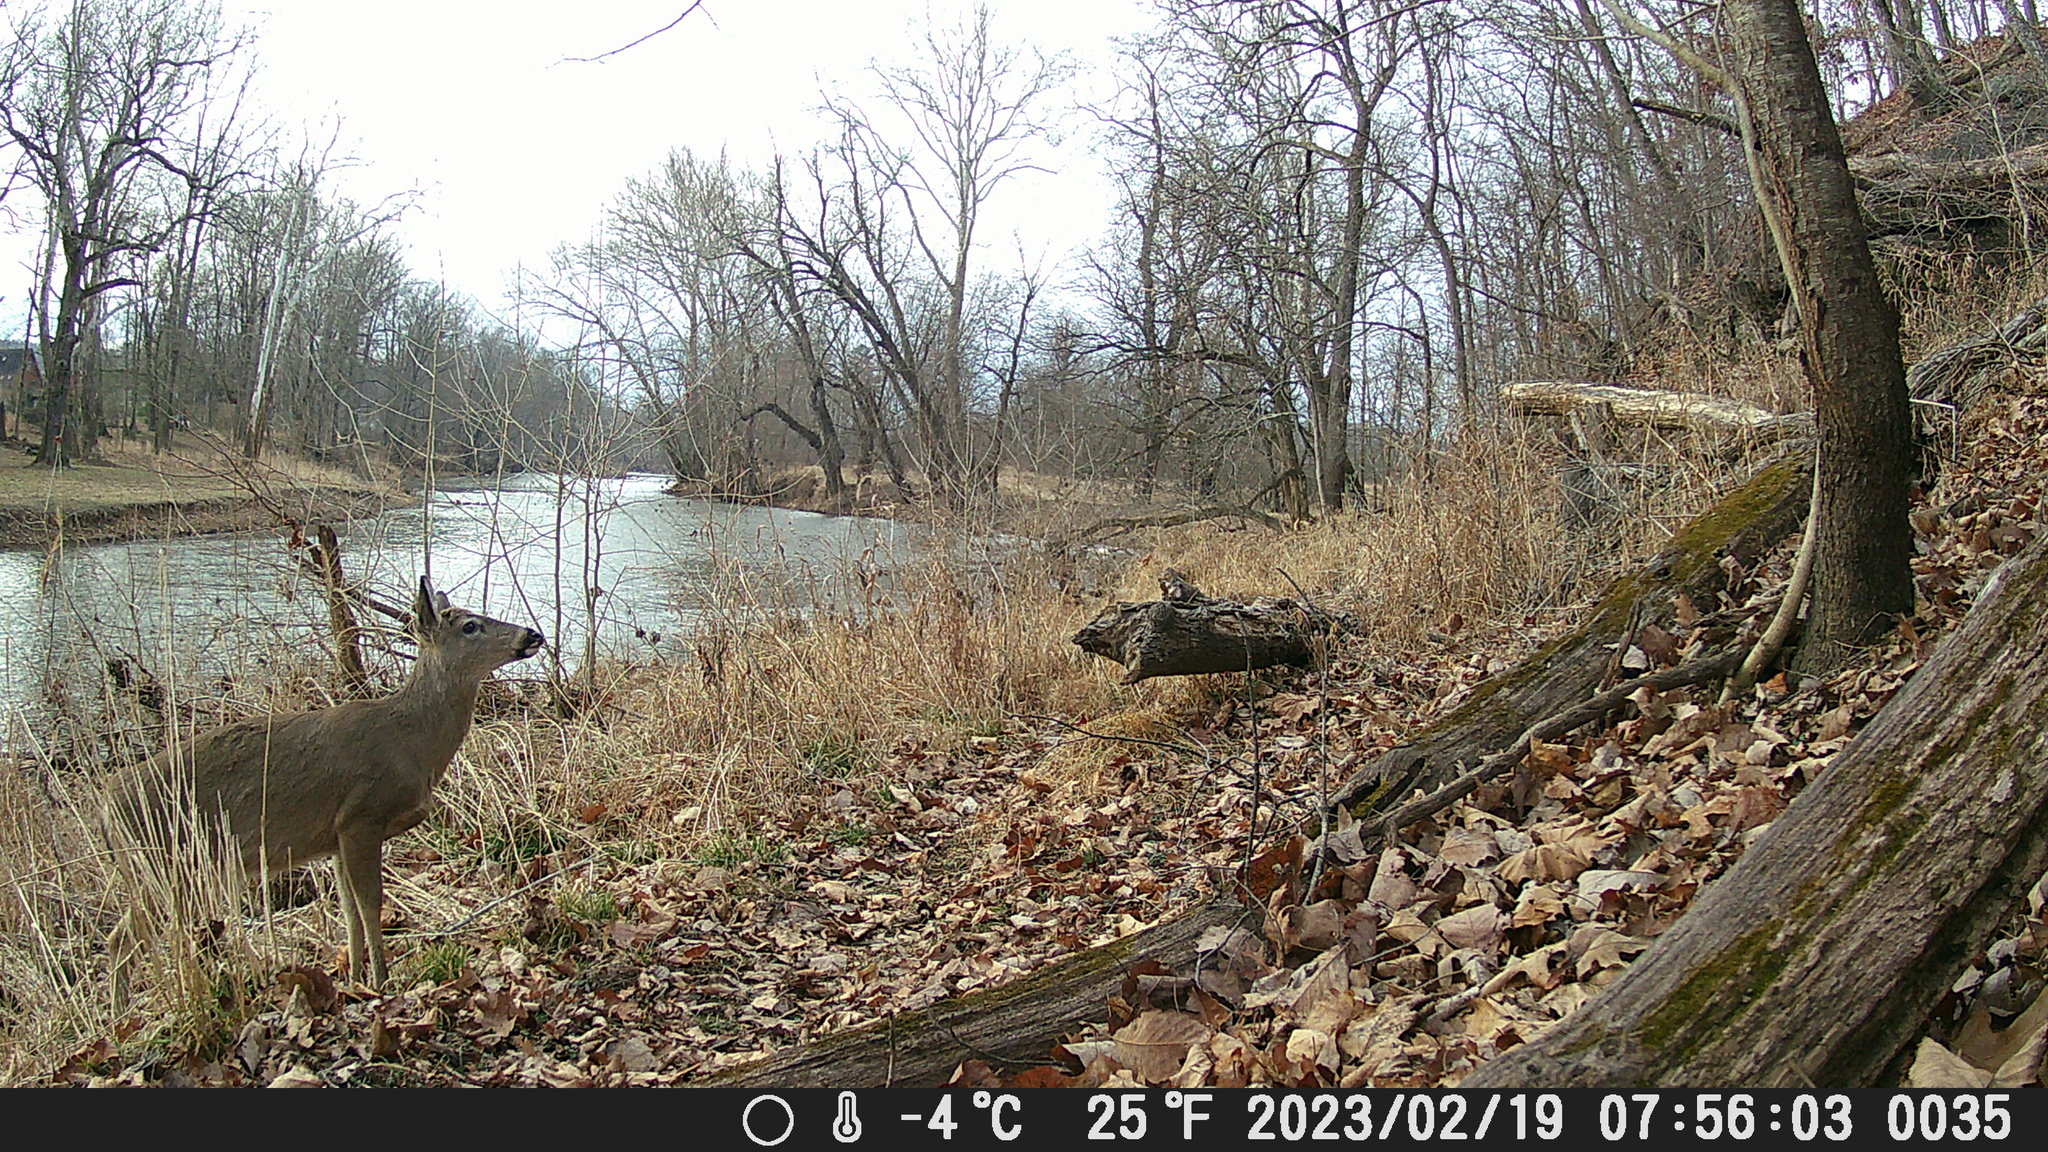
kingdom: Animalia
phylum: Chordata
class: Mammalia
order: Artiodactyla
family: Cervidae
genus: Odocoileus
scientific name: Odocoileus virginianus
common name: White-tailed deer
